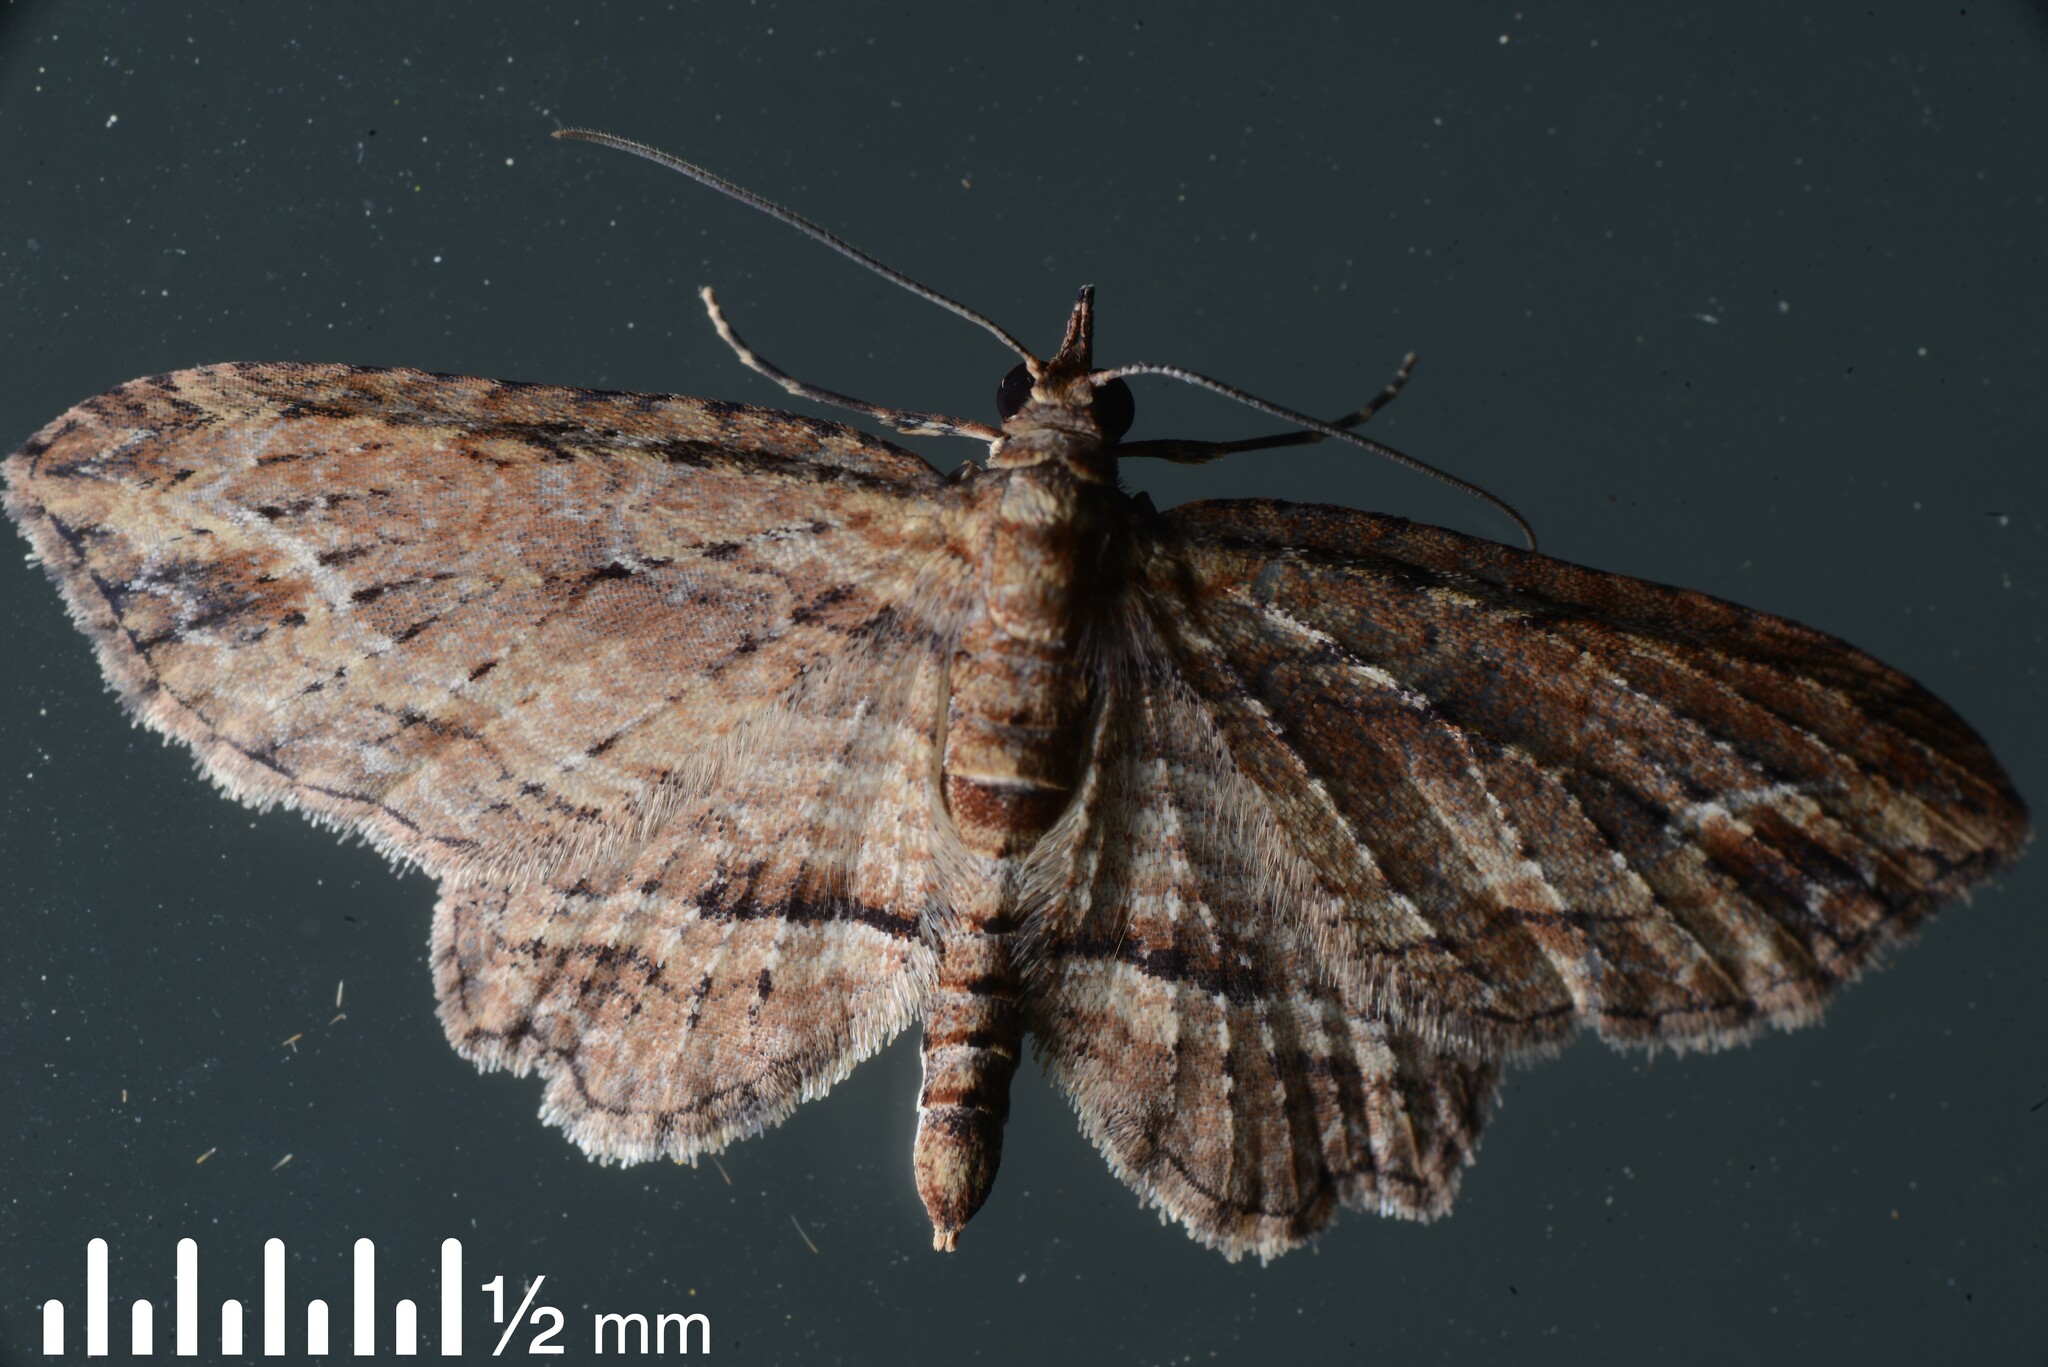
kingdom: Animalia
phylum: Arthropoda
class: Insecta
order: Lepidoptera
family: Geometridae
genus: Chloroclystis
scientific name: Chloroclystis filata
